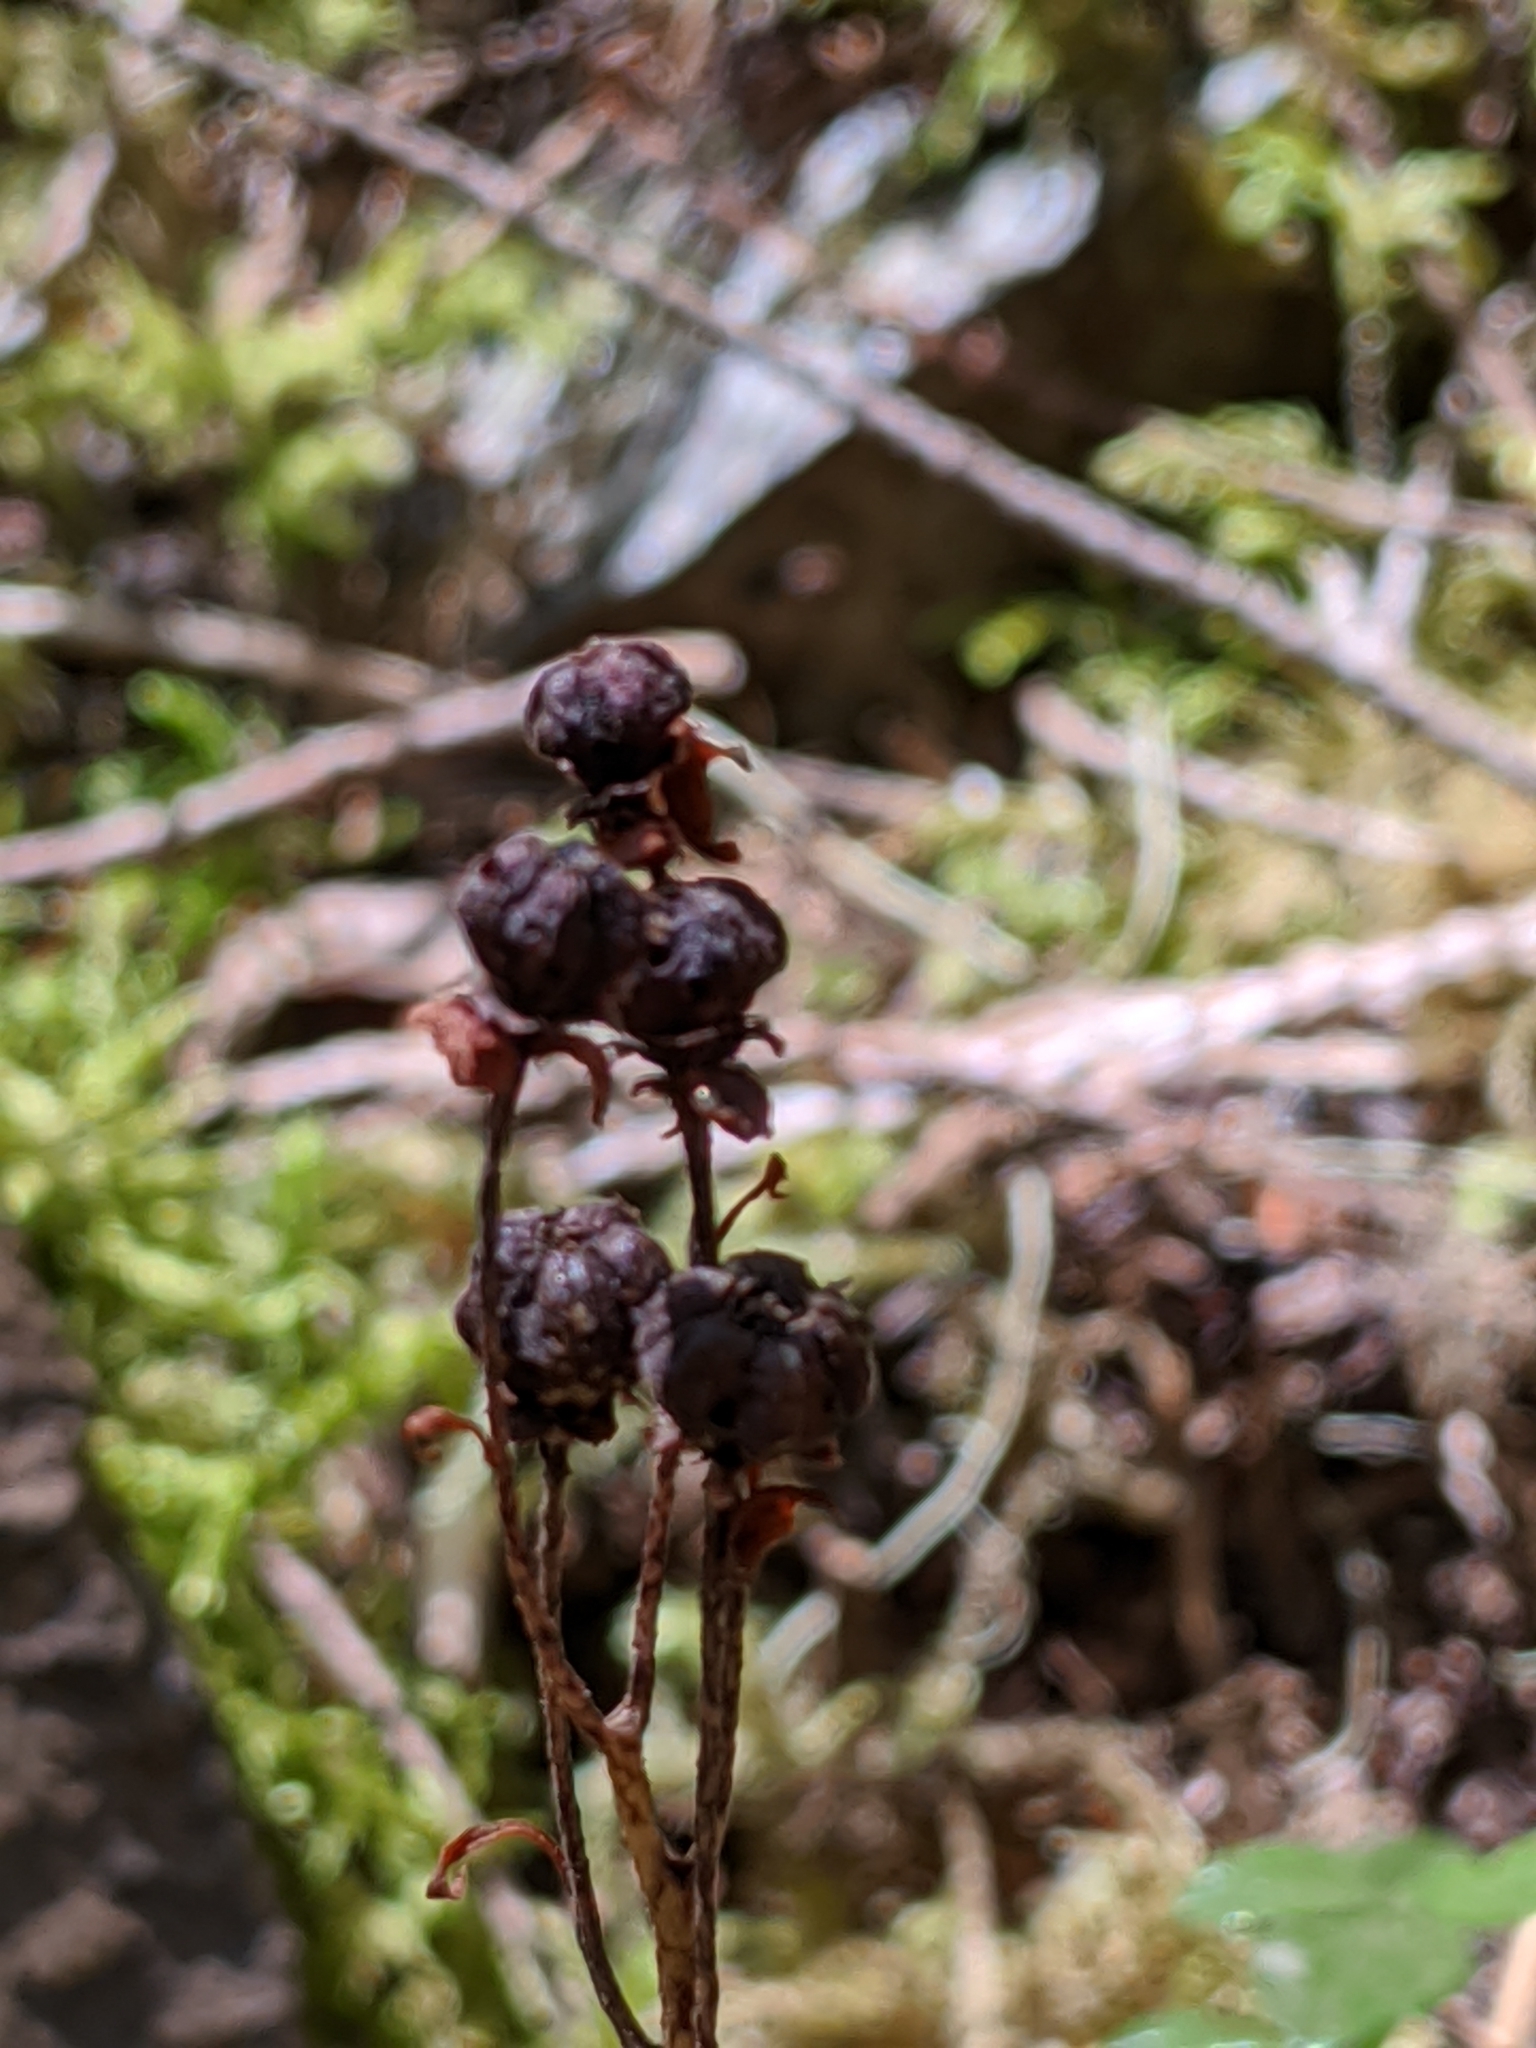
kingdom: Plantae
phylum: Tracheophyta
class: Magnoliopsida
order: Ericales
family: Ericaceae
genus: Chimaphila
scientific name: Chimaphila umbellata
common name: Pipsissewa
